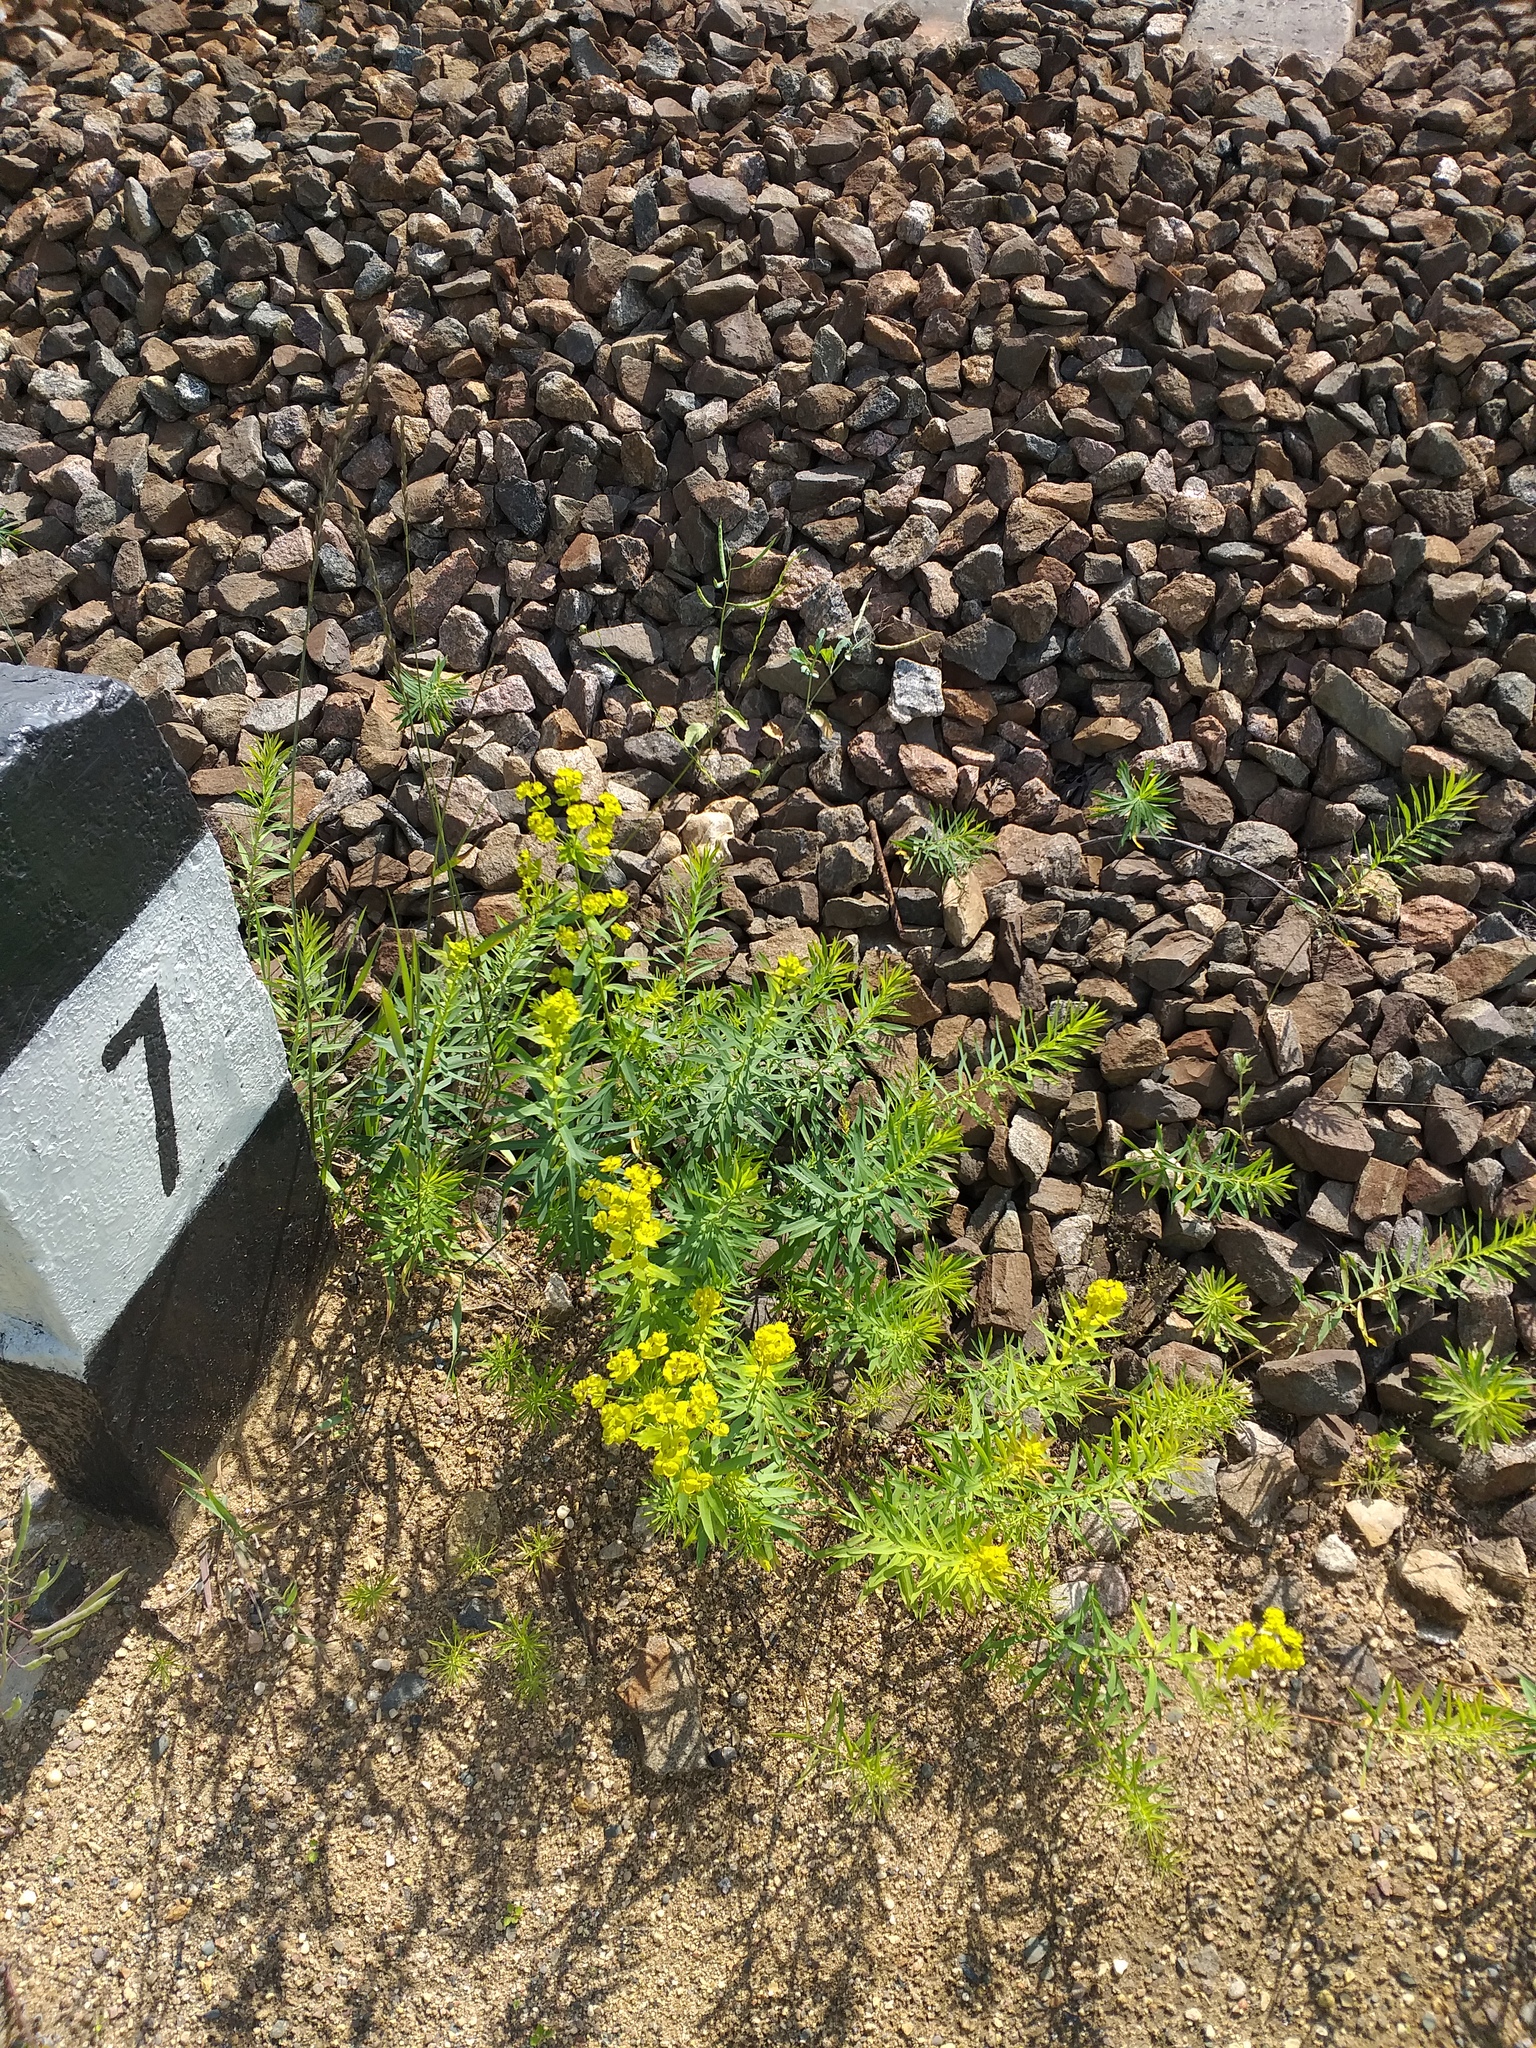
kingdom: Plantae
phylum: Tracheophyta
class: Magnoliopsida
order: Malpighiales
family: Euphorbiaceae
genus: Euphorbia
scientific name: Euphorbia virgata
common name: Leafy spurge
